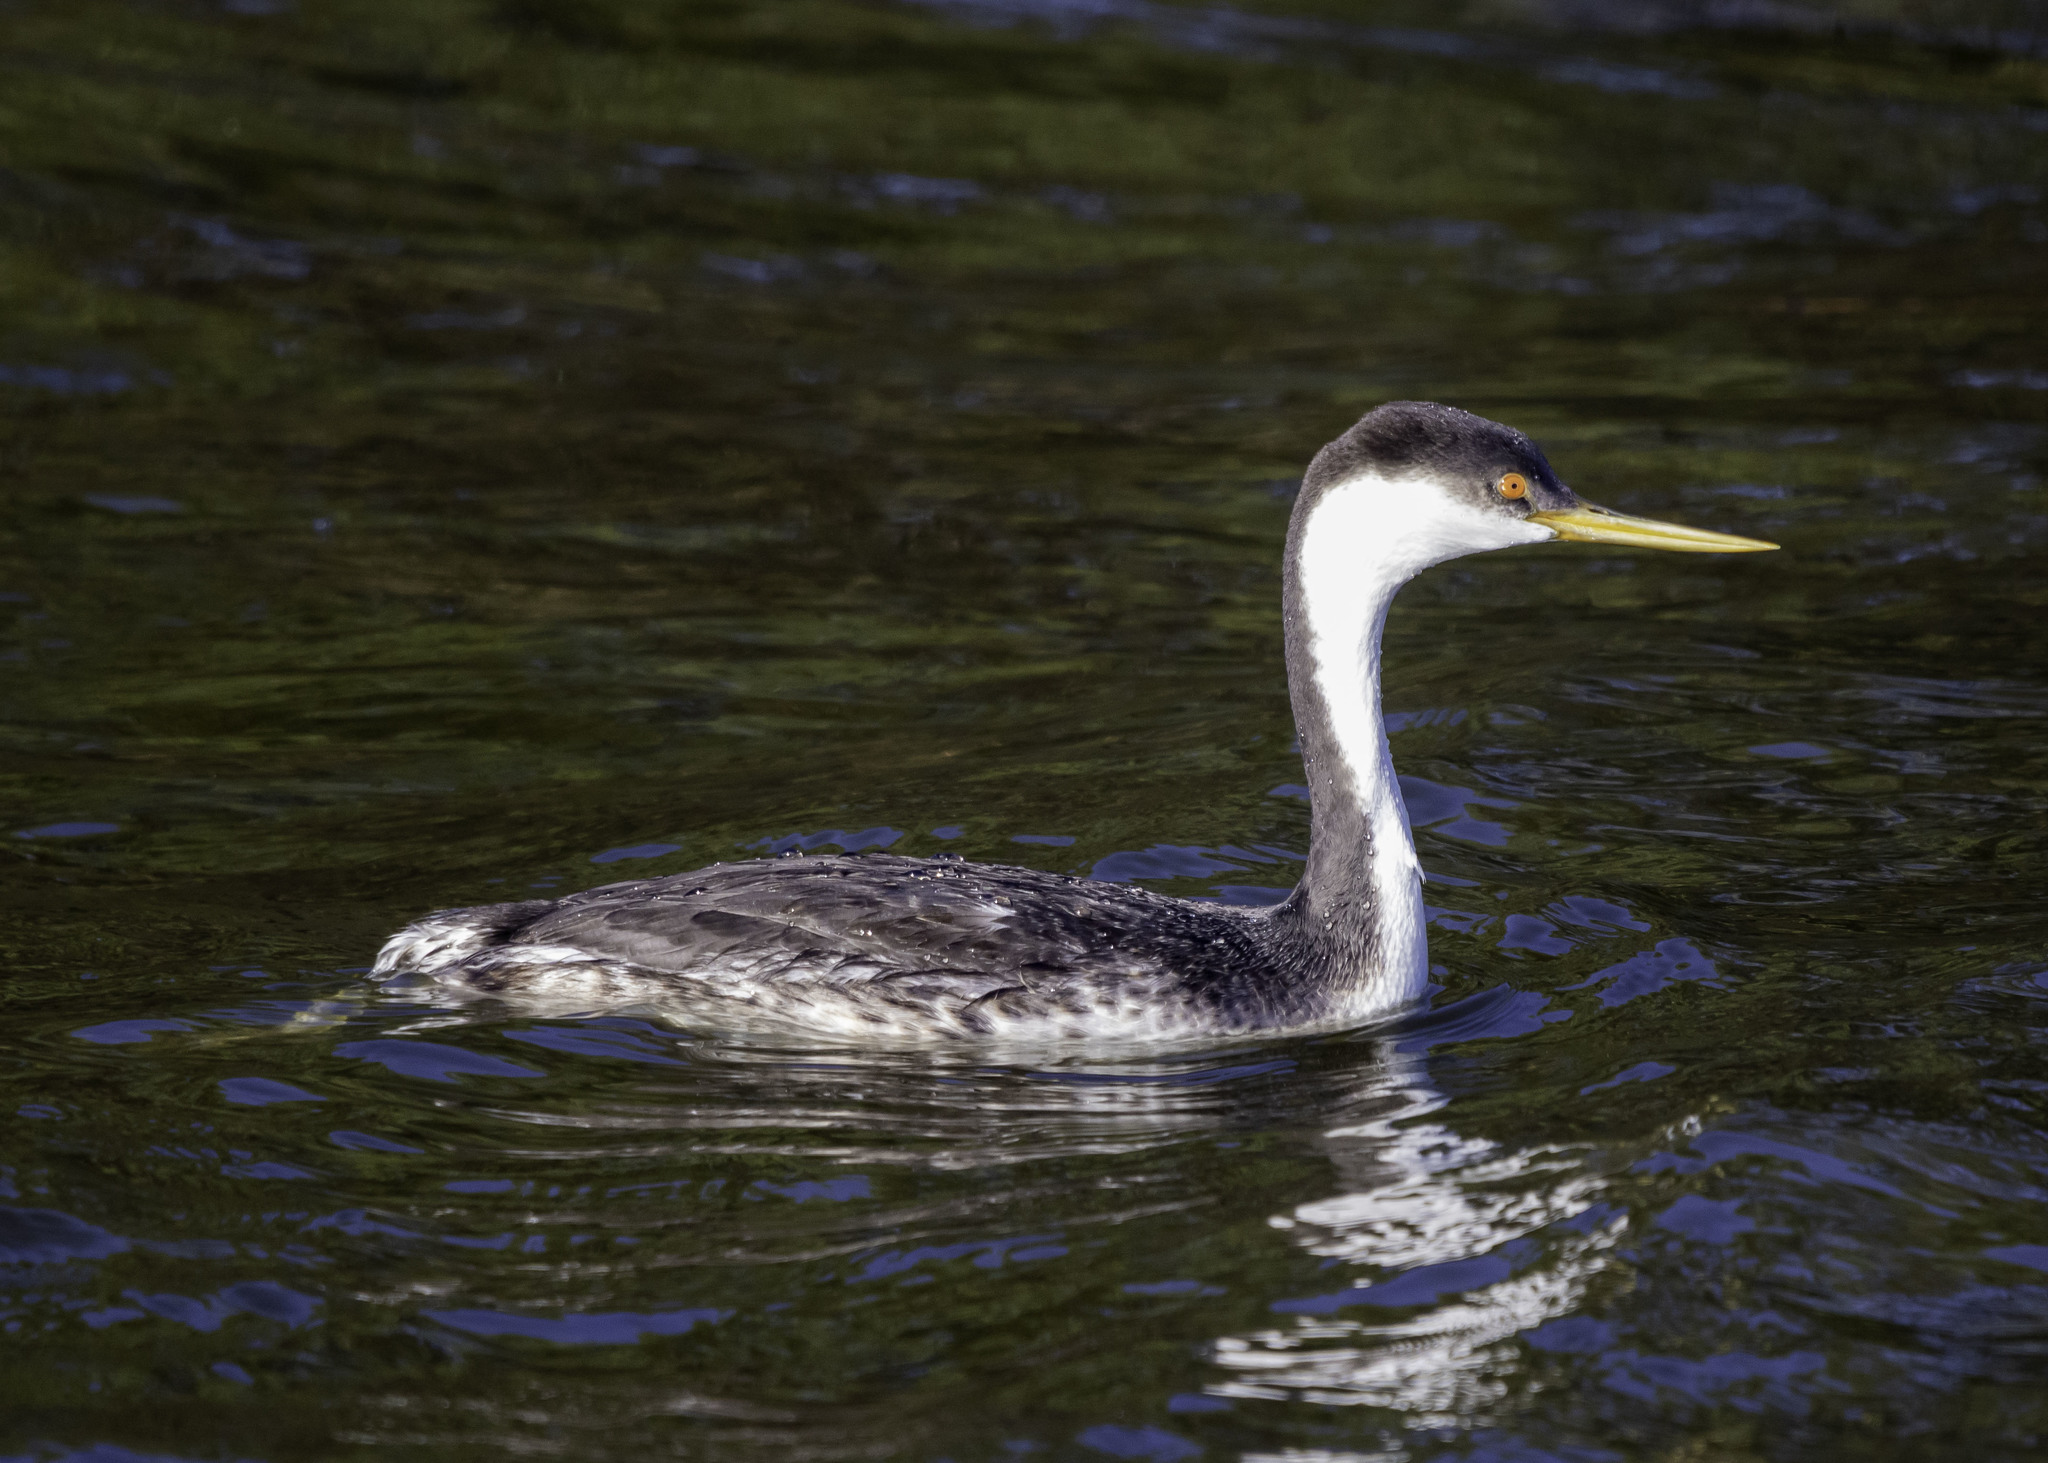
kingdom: Animalia
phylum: Chordata
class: Aves
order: Podicipediformes
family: Podicipedidae
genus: Aechmophorus
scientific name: Aechmophorus occidentalis
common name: Western grebe
